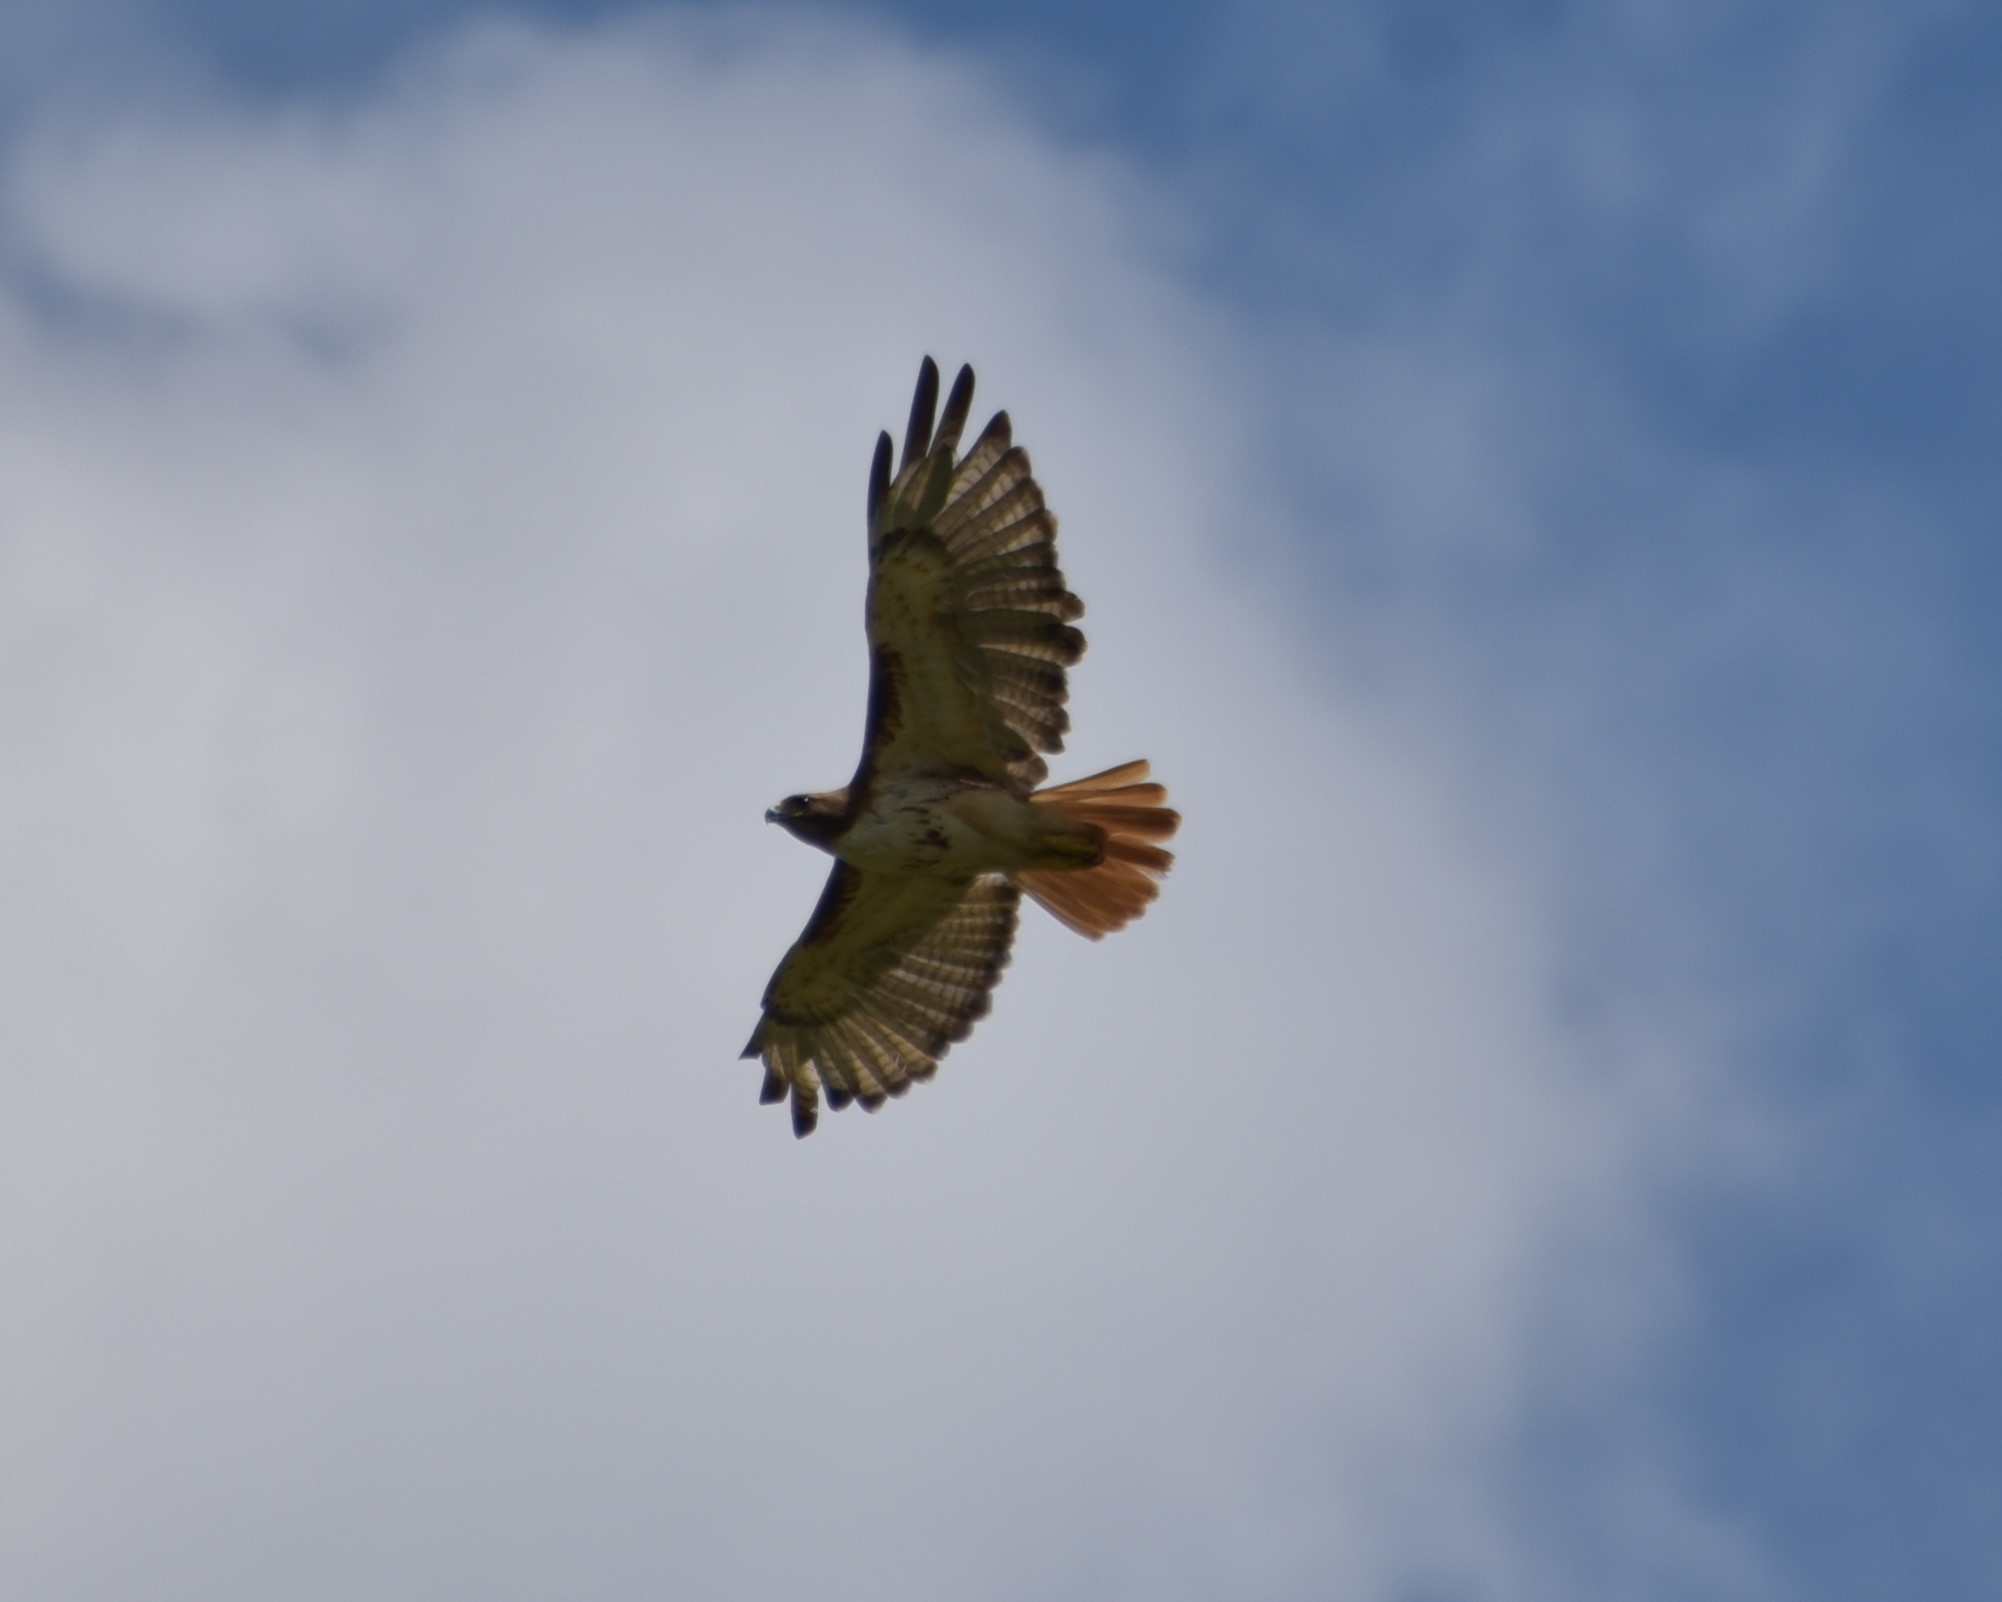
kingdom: Animalia
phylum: Chordata
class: Aves
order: Accipitriformes
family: Accipitridae
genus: Buteo
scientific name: Buteo jamaicensis
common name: Red-tailed hawk
